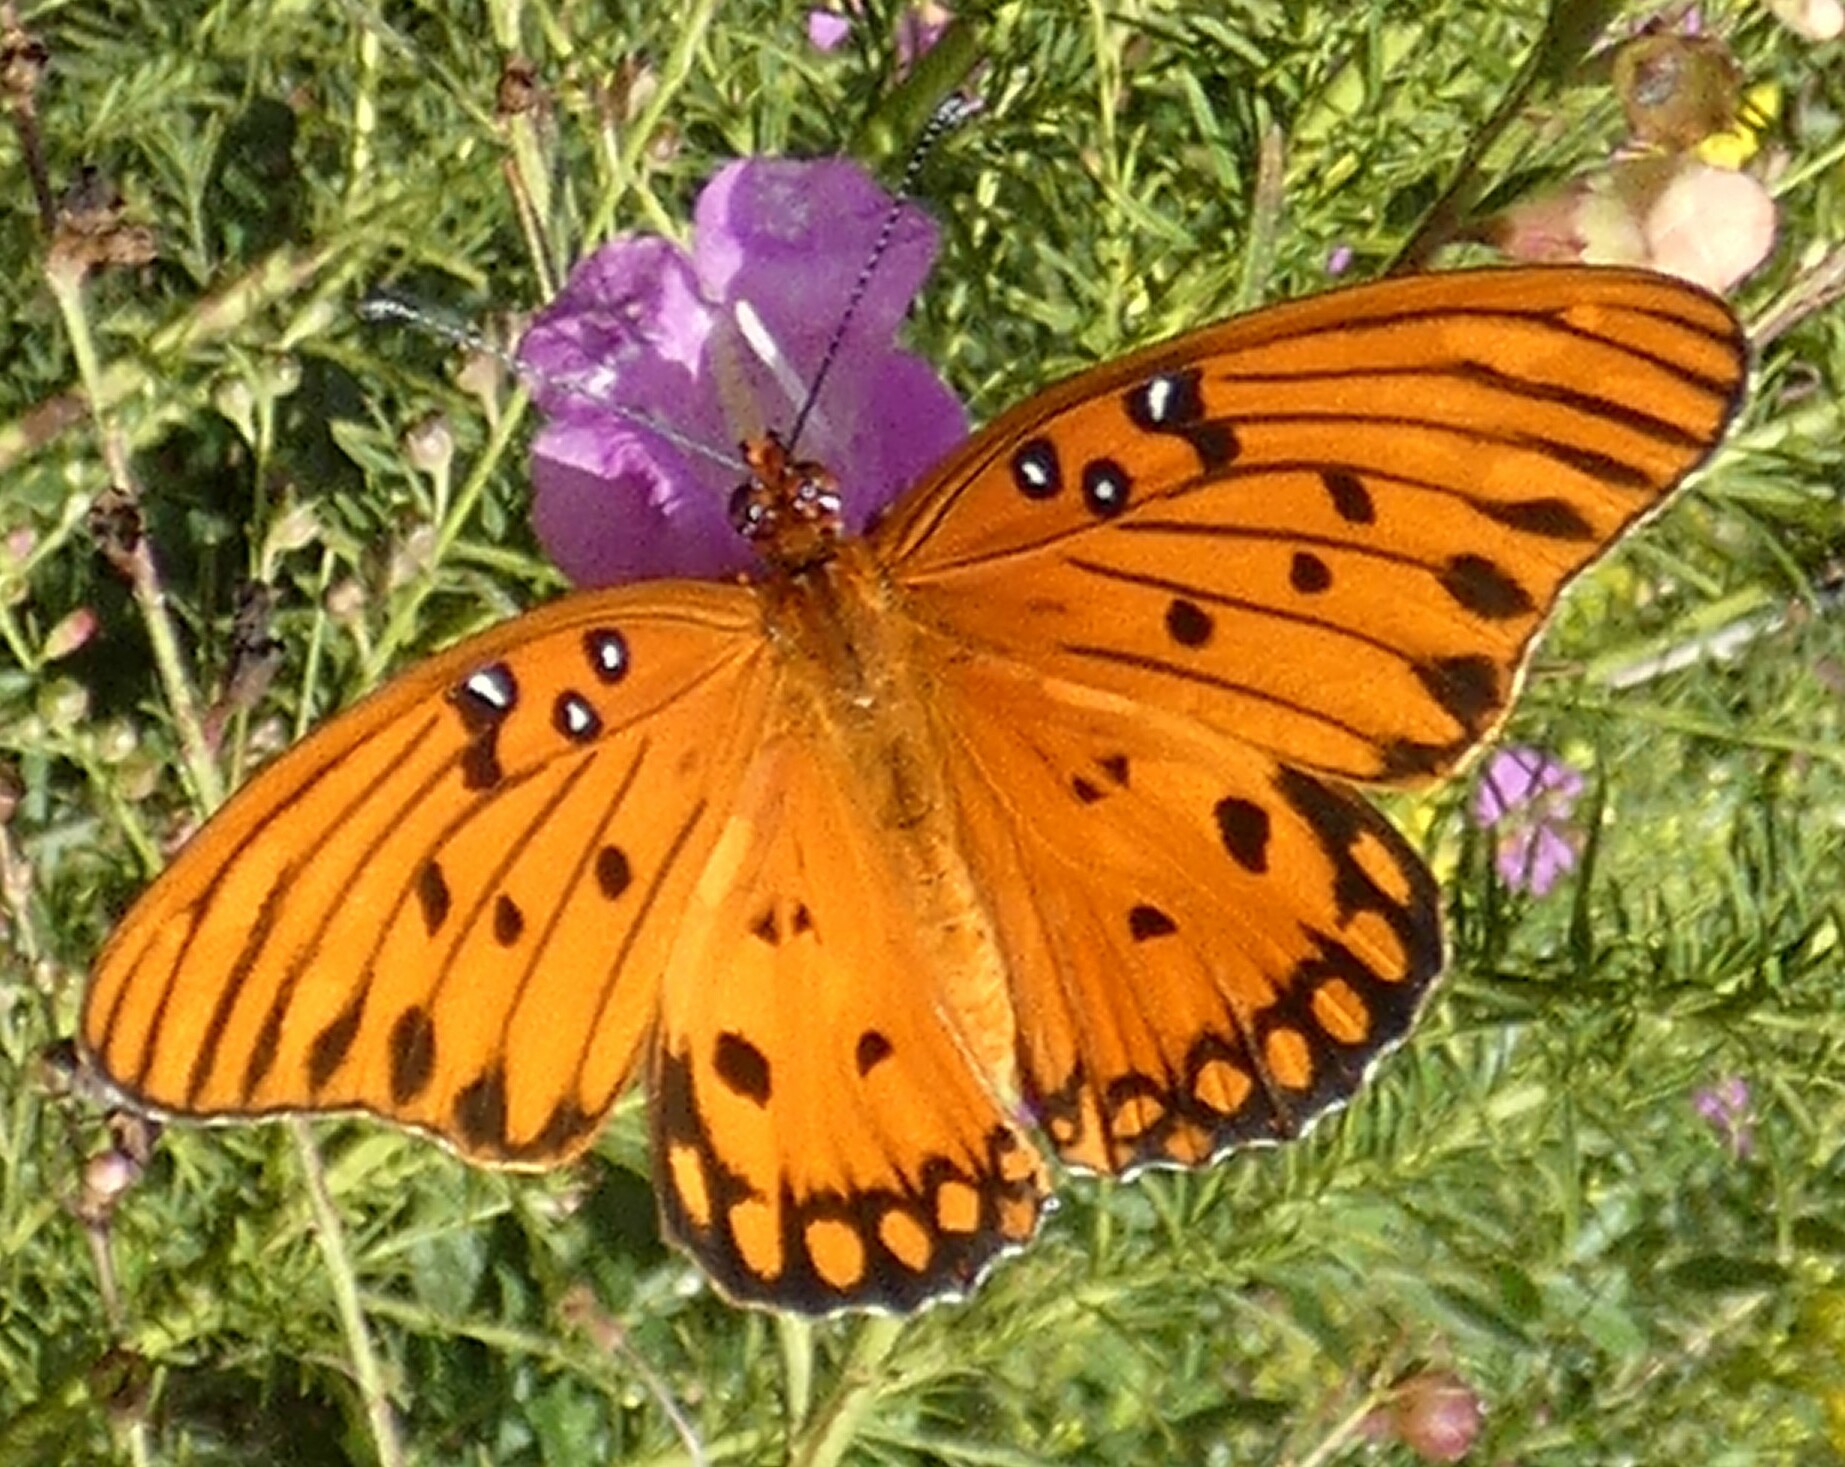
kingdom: Animalia
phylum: Arthropoda
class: Insecta
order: Lepidoptera
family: Nymphalidae
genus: Dione
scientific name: Dione vanillae
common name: Gulf fritillary
